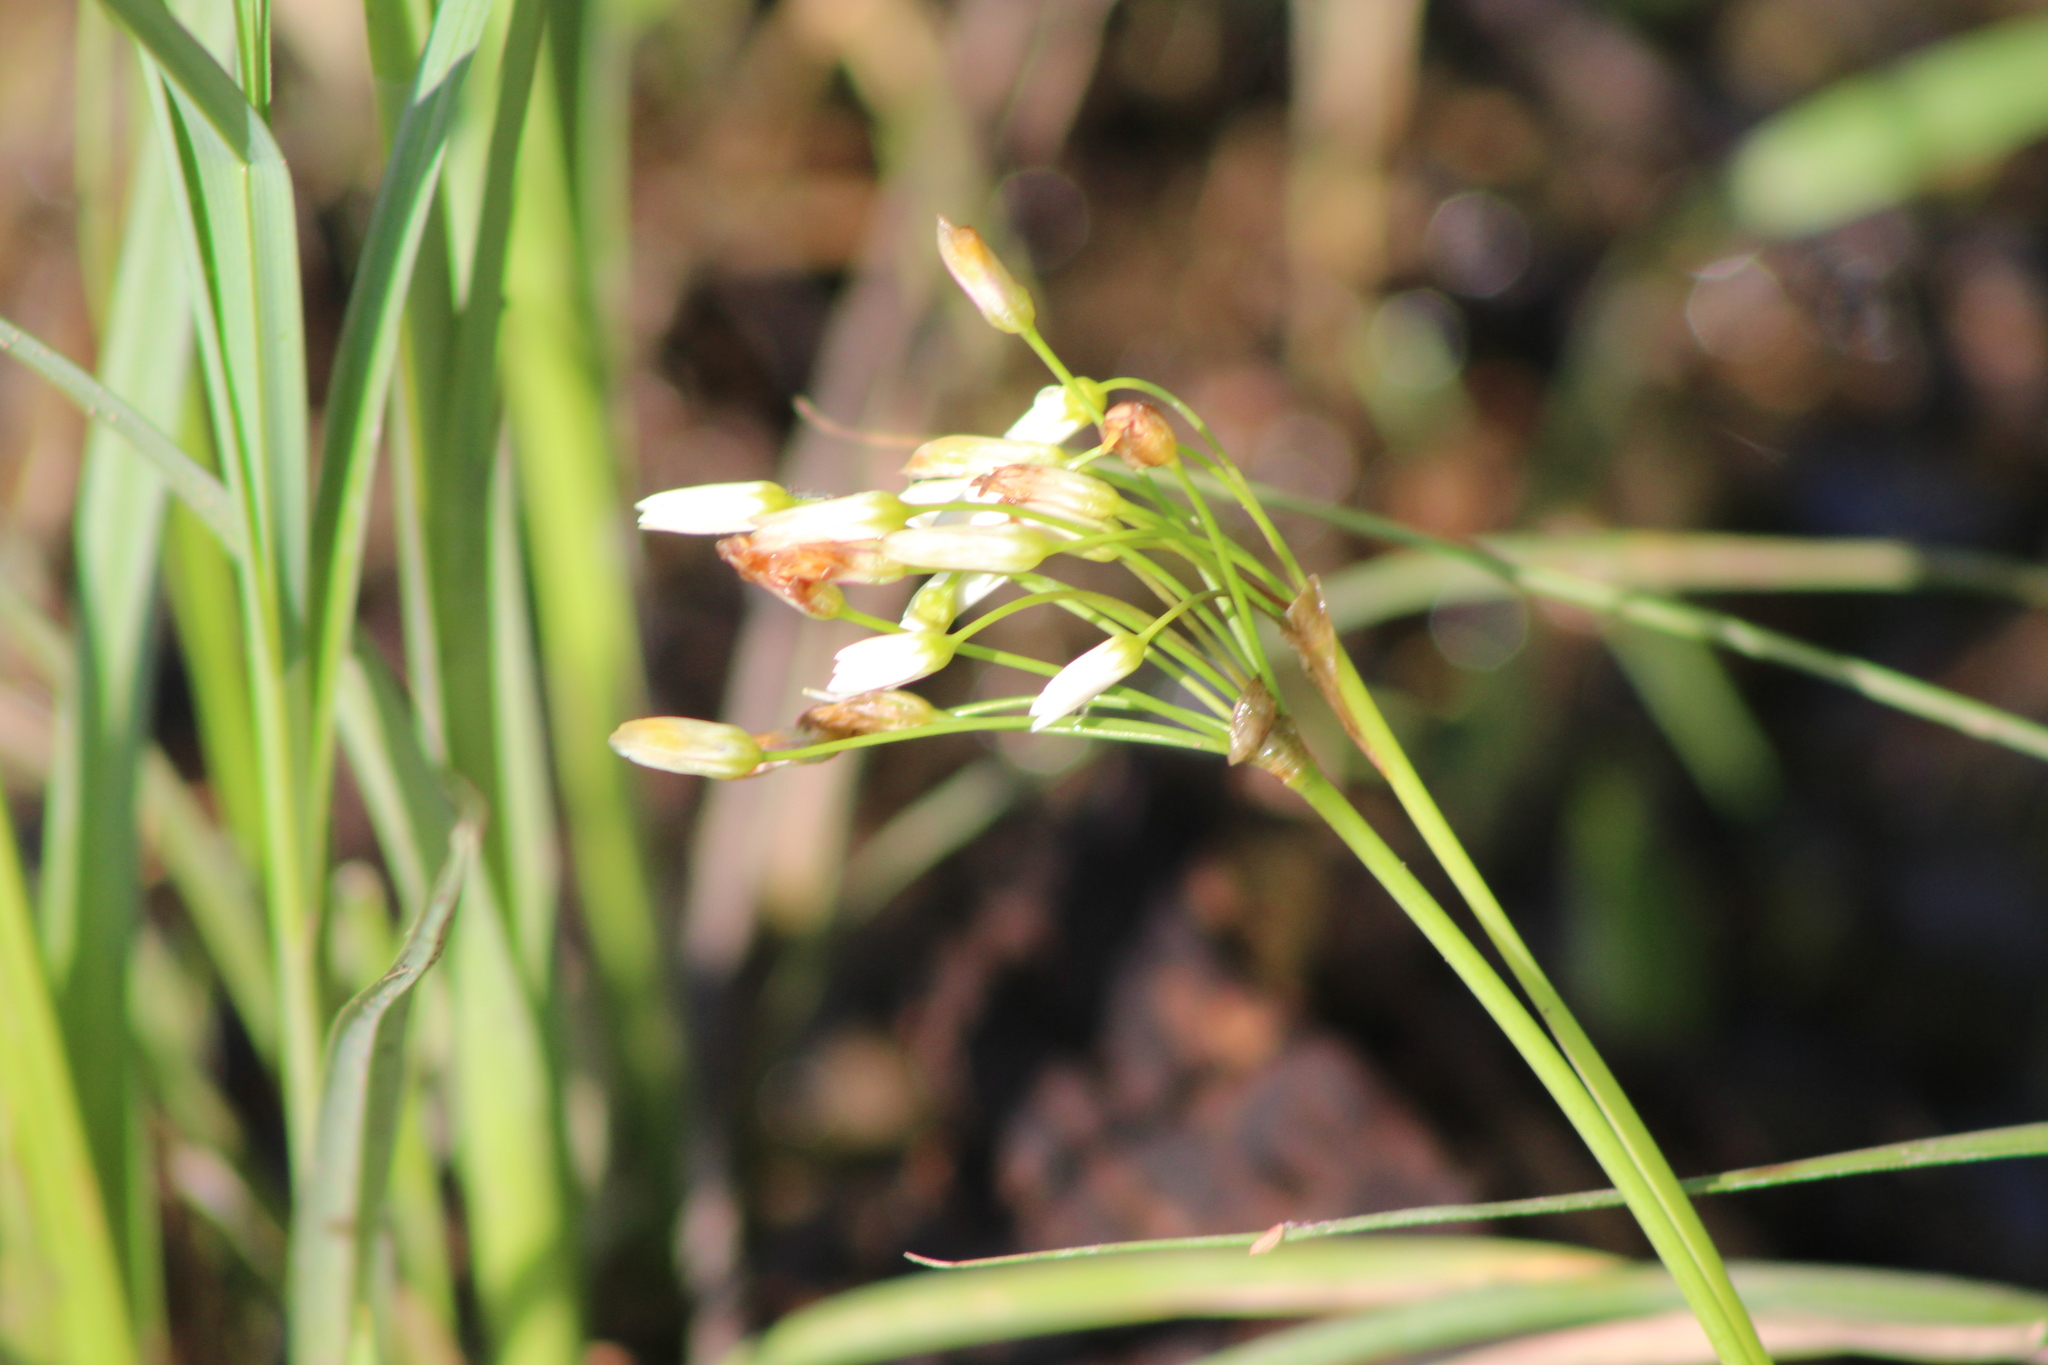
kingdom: Plantae
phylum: Tracheophyta
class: Liliopsida
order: Asparagales
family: Amaryllidaceae
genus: Nothoscordum
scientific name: Nothoscordum bivalve
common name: Crow-poison
